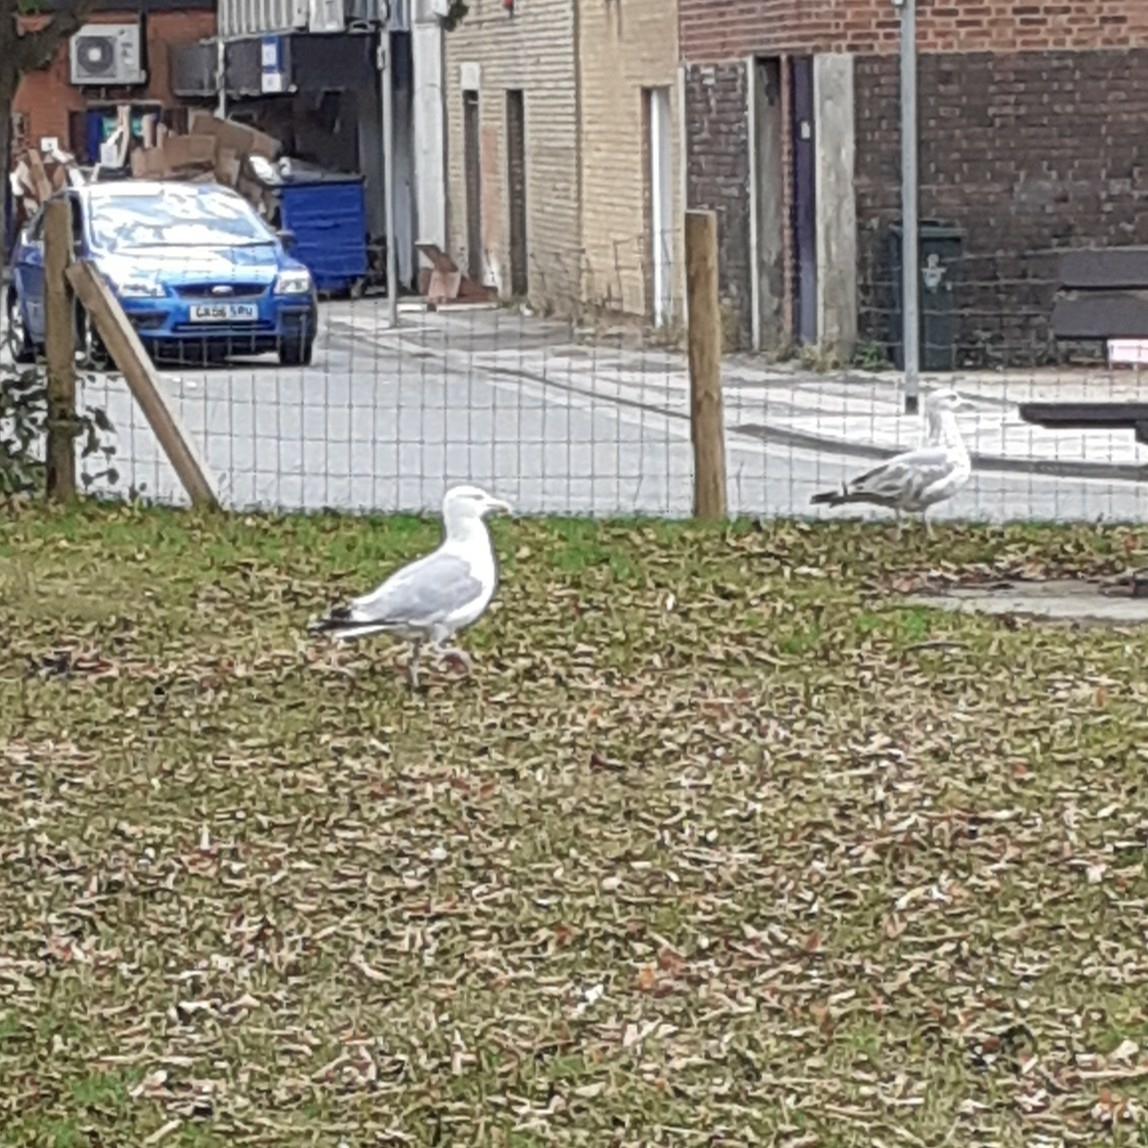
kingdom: Animalia
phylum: Chordata
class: Aves
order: Charadriiformes
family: Laridae
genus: Larus
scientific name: Larus argentatus
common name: Herring gull
